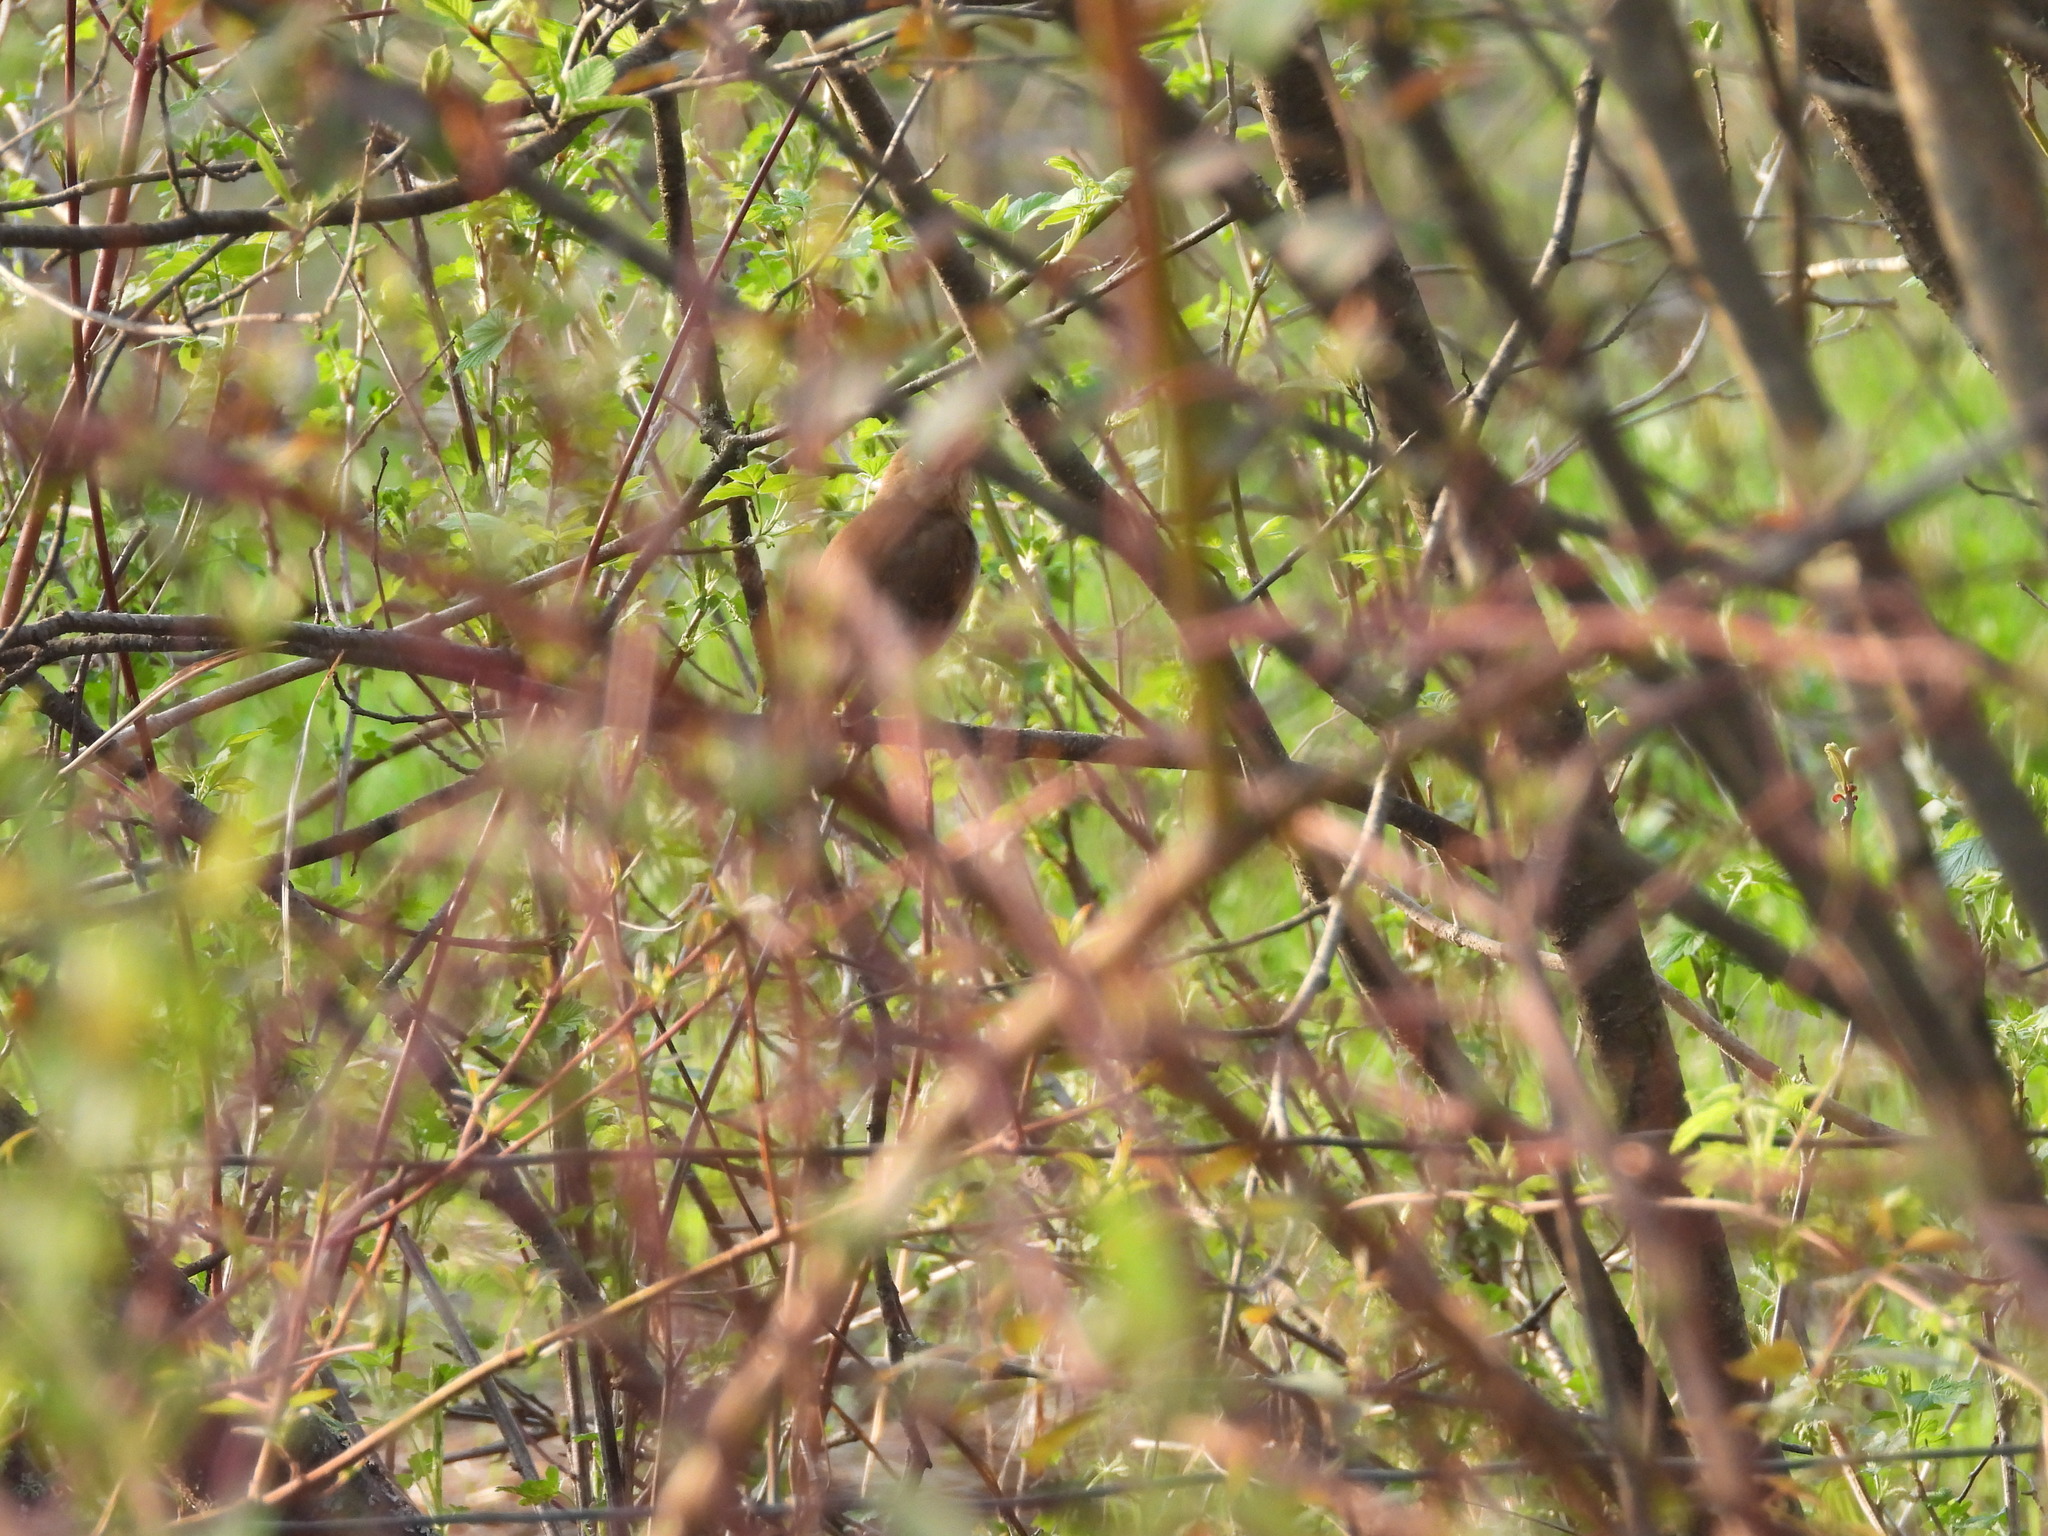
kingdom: Animalia
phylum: Chordata
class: Aves
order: Passeriformes
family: Turdidae
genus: Catharus
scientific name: Catharus fuscescens
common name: Veery
